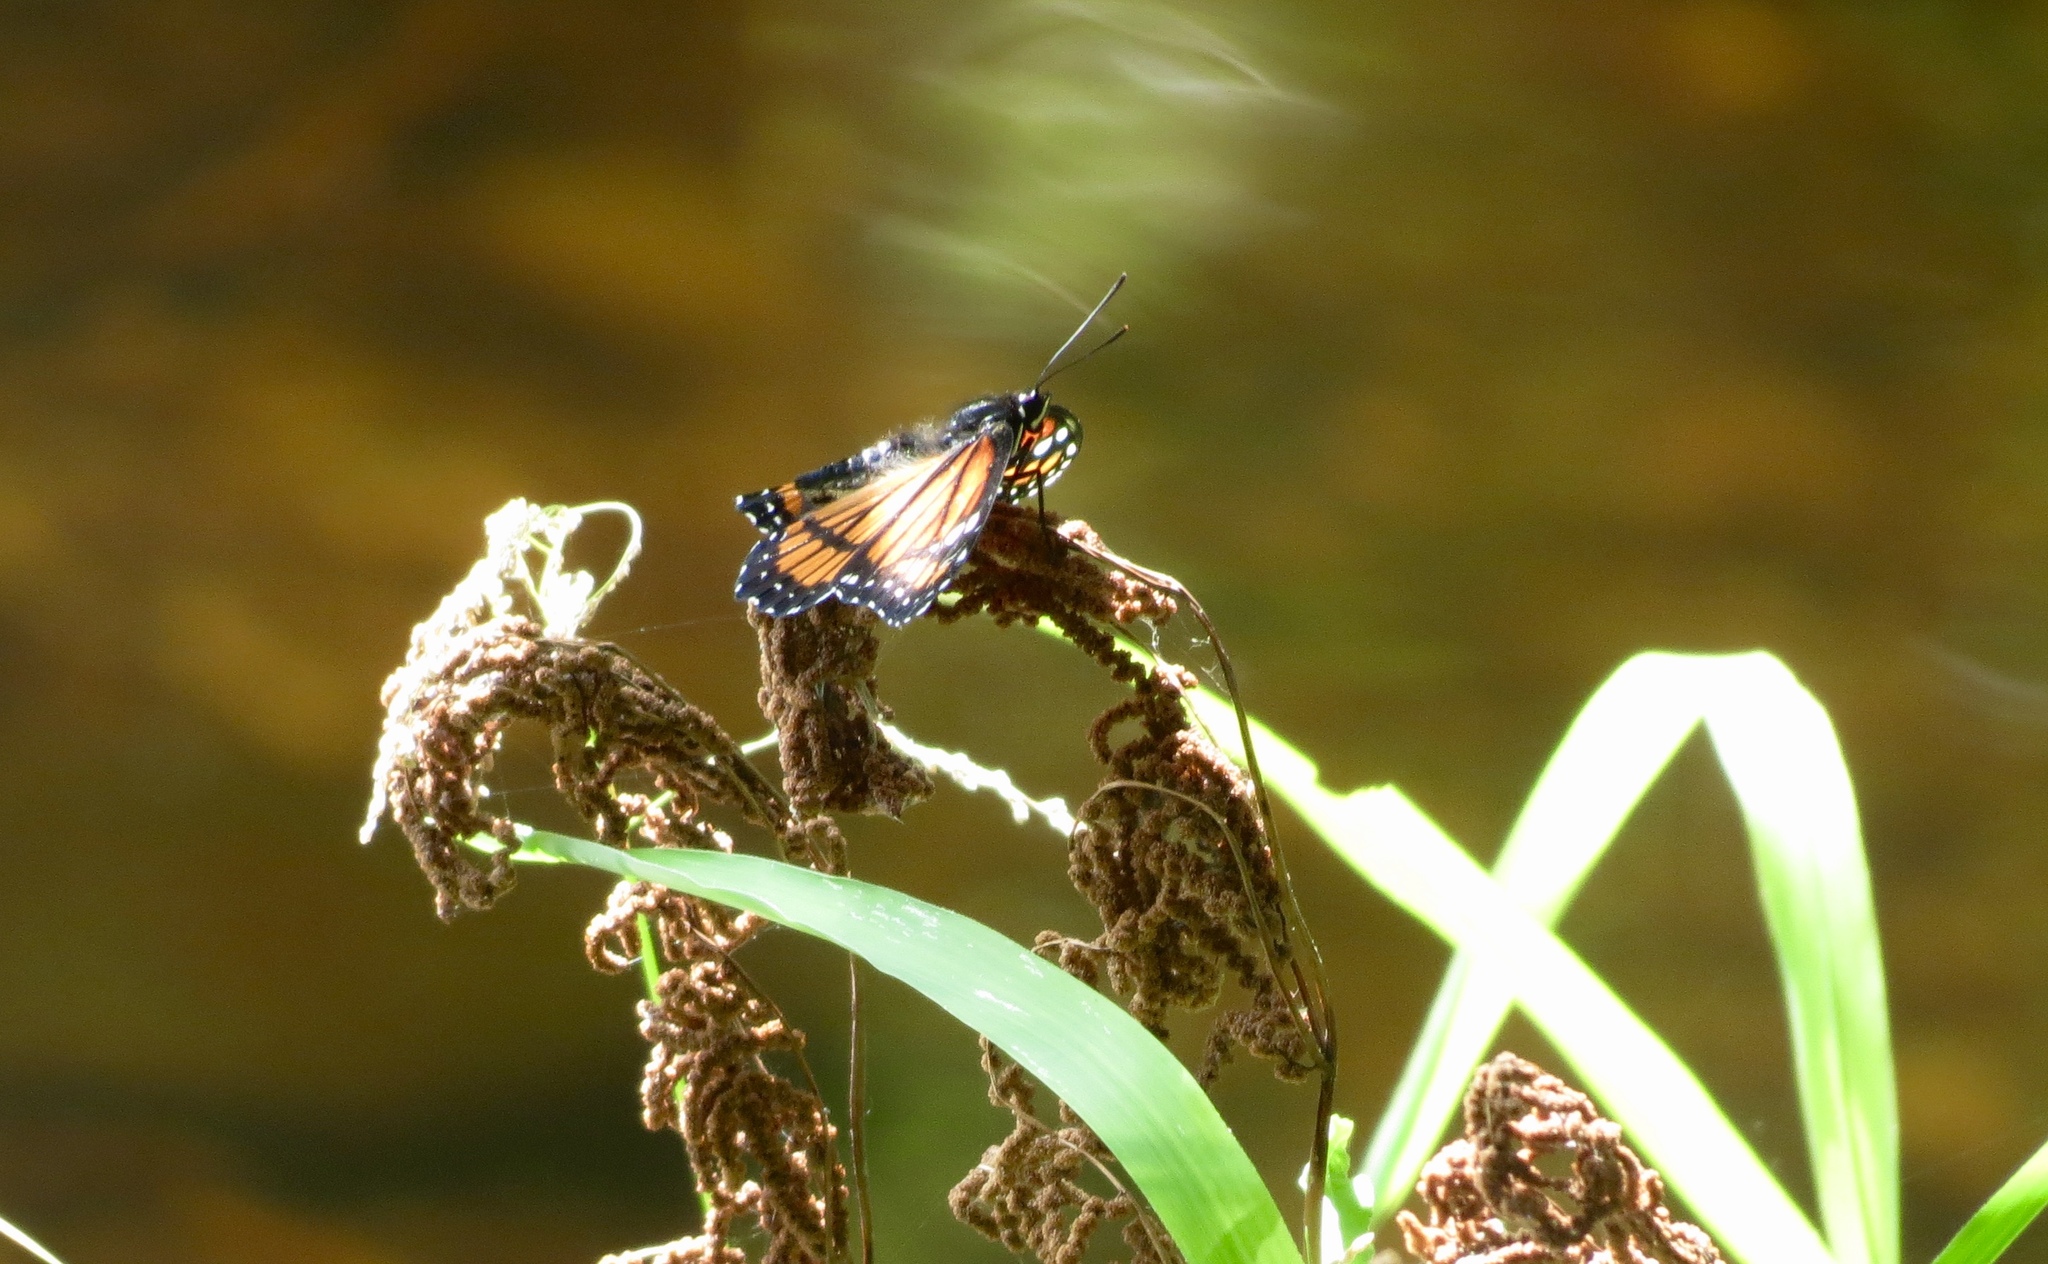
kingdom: Animalia
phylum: Arthropoda
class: Insecta
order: Lepidoptera
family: Nymphalidae
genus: Limenitis
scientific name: Limenitis archippus
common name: Viceroy
